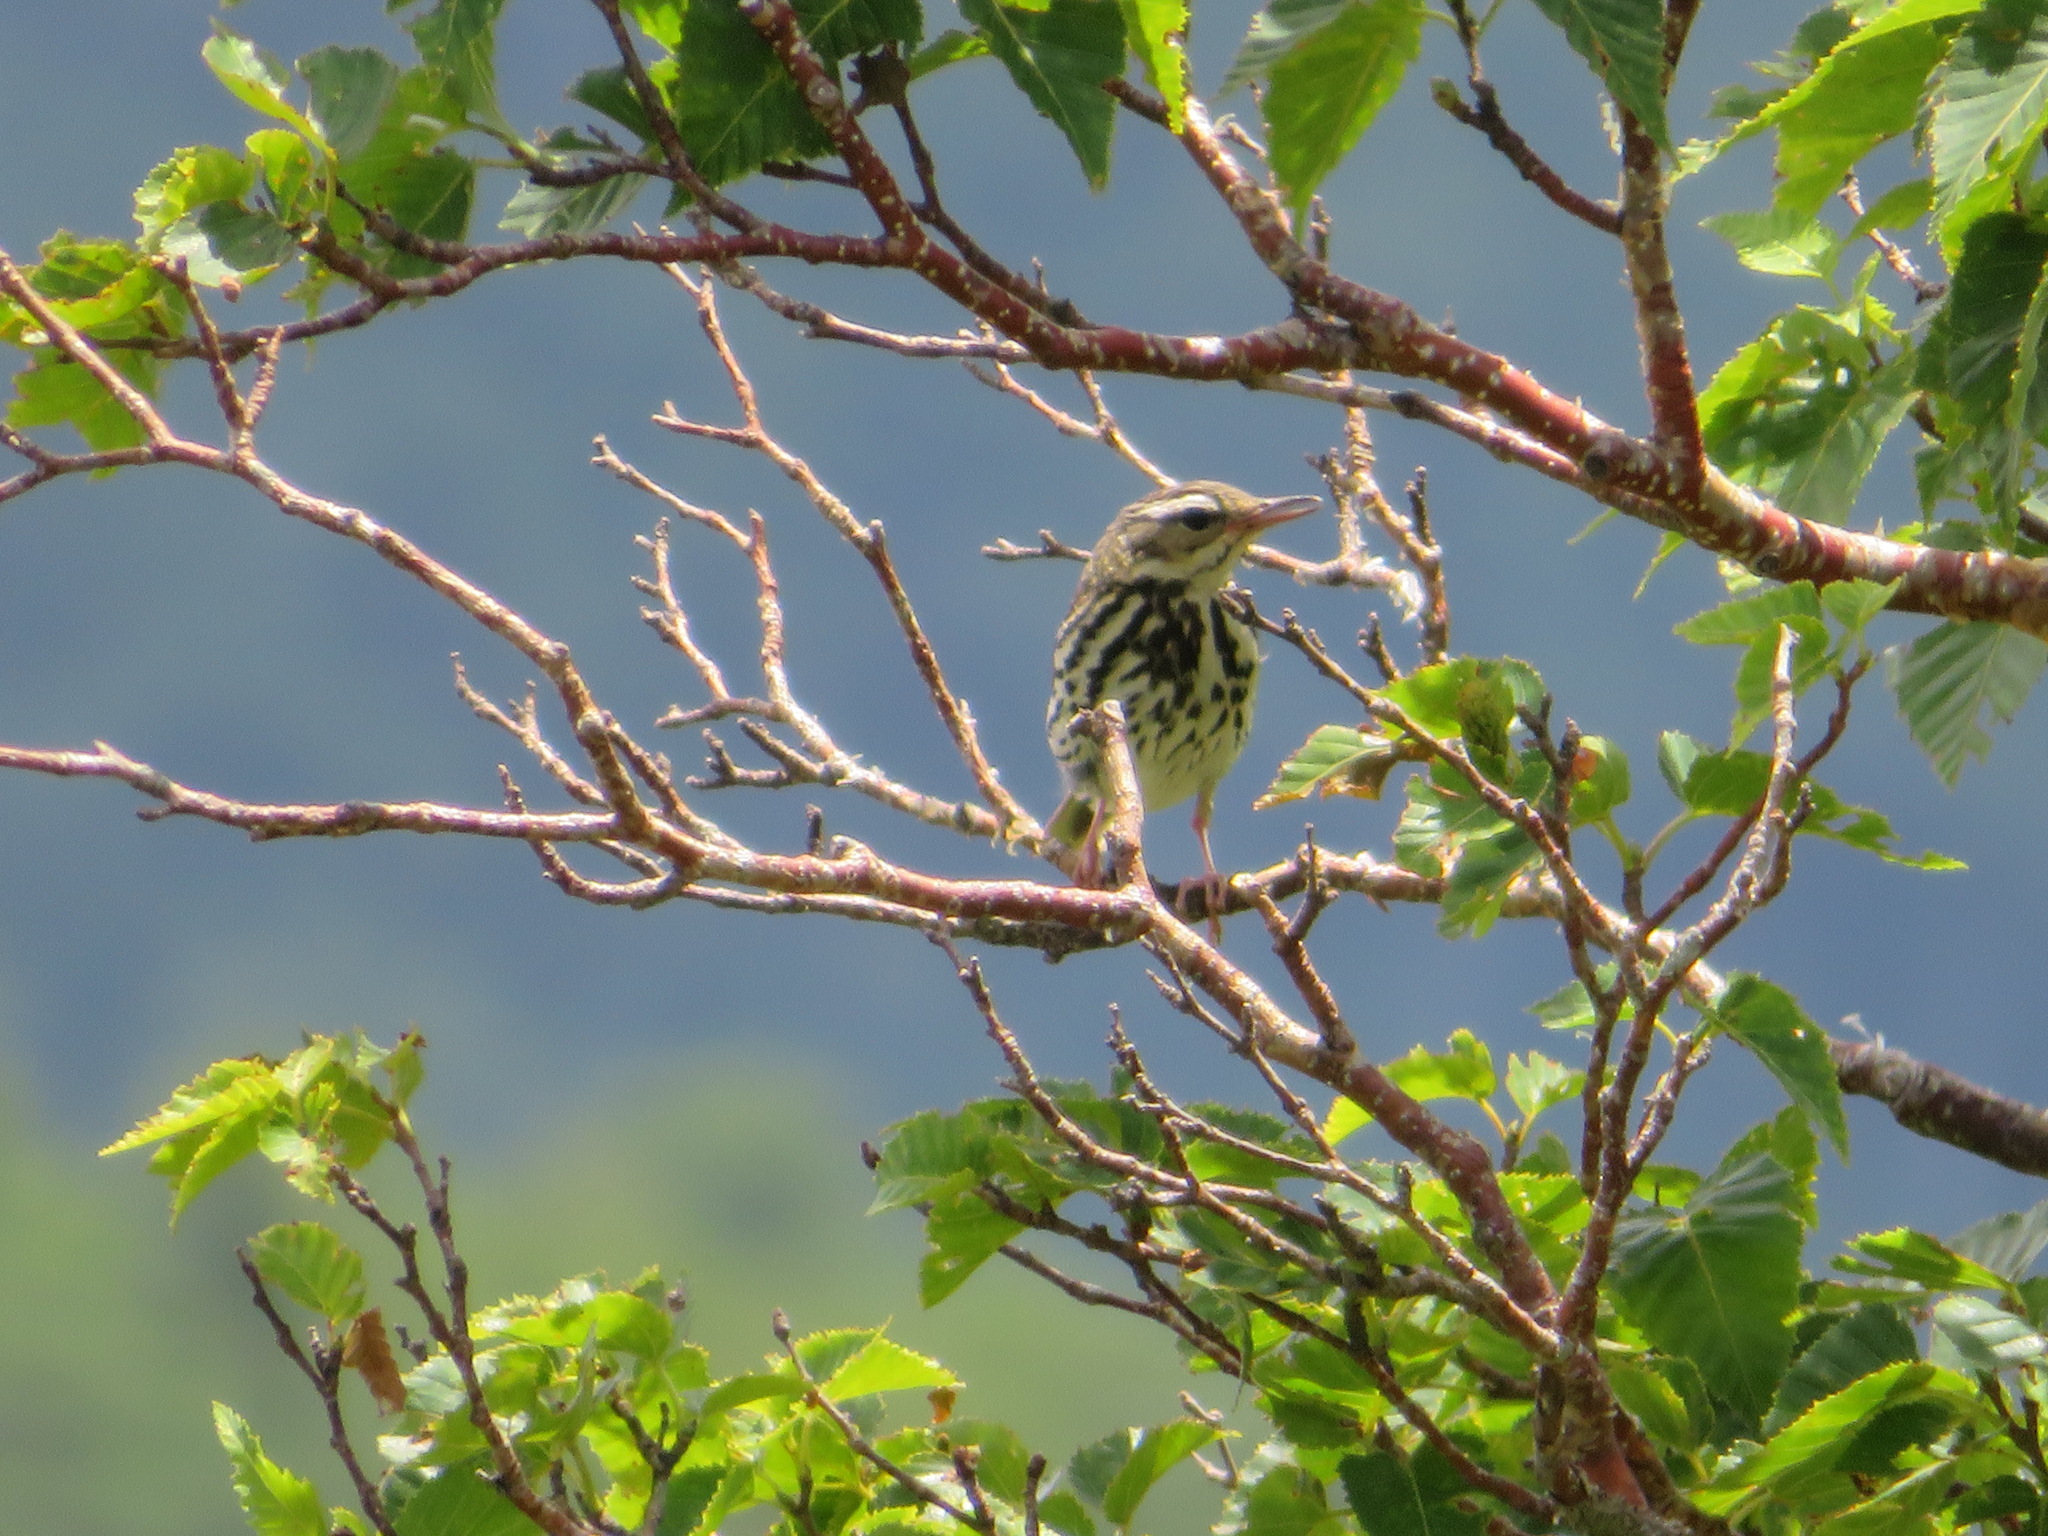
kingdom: Animalia
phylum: Chordata
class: Aves
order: Passeriformes
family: Motacillidae
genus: Anthus
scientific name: Anthus hodgsoni
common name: Olive-backed pipit
